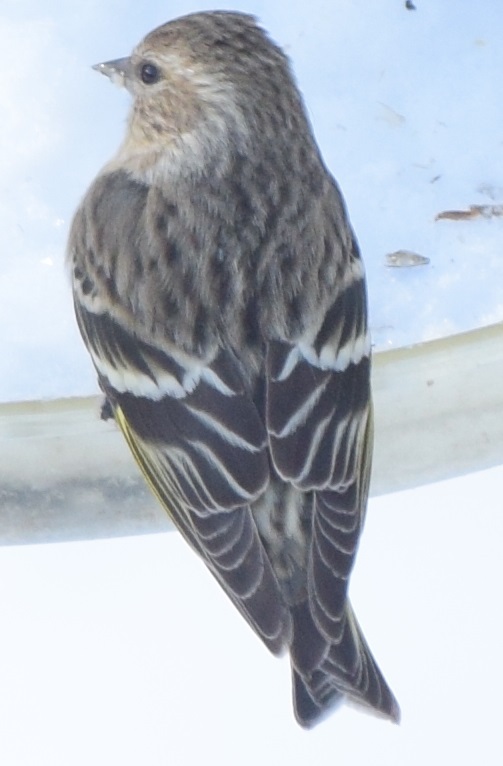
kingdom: Animalia
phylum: Chordata
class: Aves
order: Passeriformes
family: Fringillidae
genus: Spinus
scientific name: Spinus pinus
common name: Pine siskin
